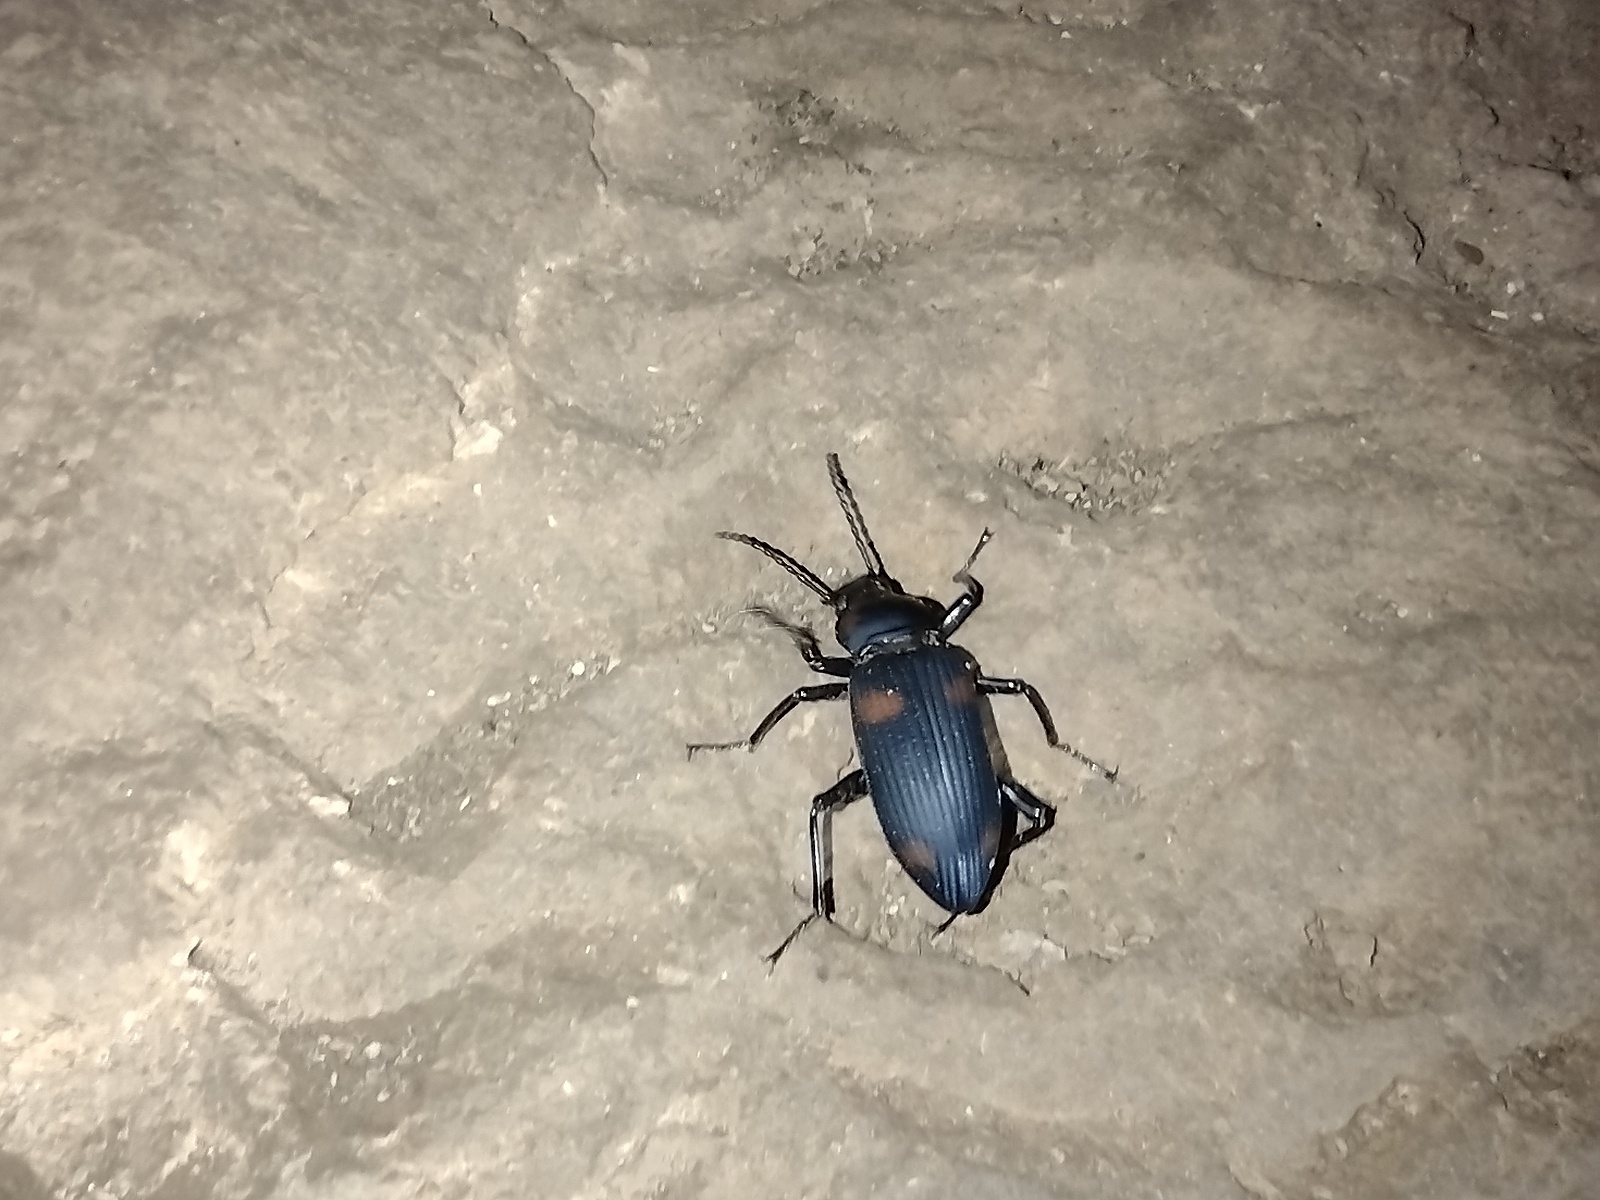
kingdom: Animalia
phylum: Arthropoda
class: Insecta
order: Coleoptera
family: Tenebrionidae
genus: Zophobas
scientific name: Zophobas signatus
